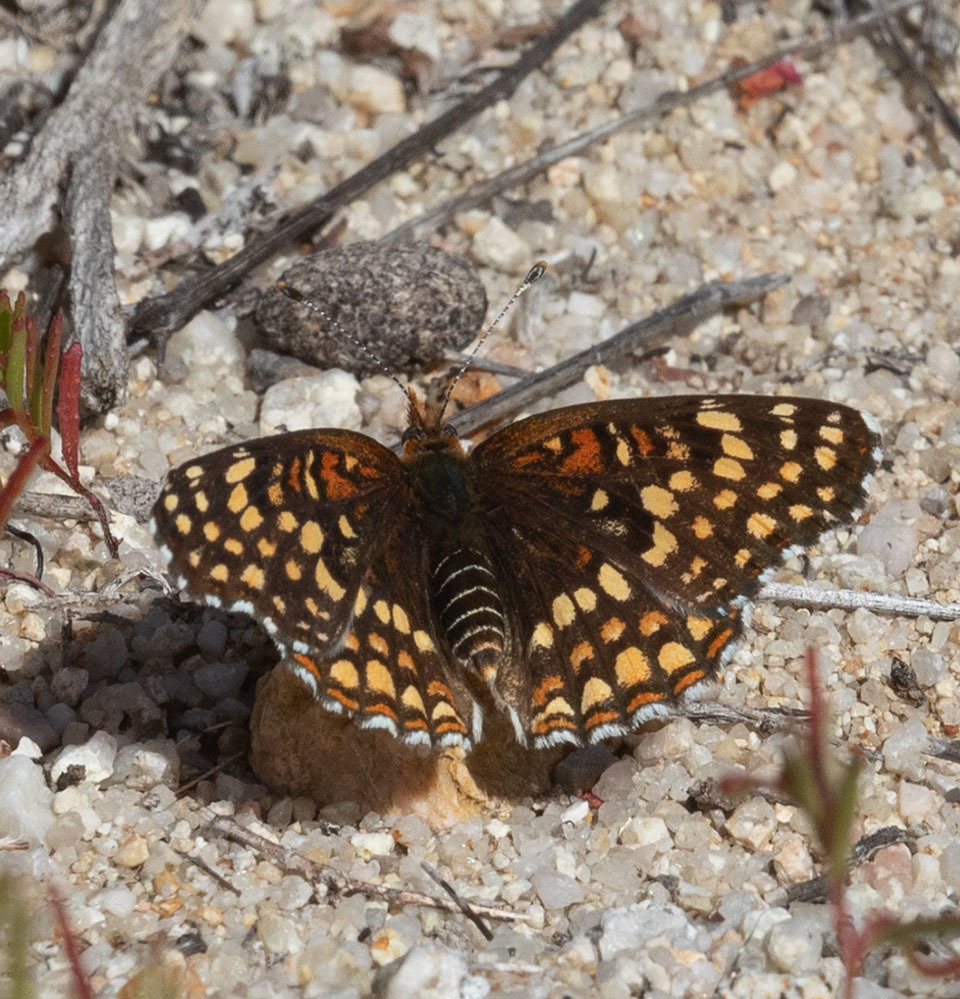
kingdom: Animalia
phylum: Arthropoda
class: Insecta
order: Lepidoptera
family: Nymphalidae
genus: Chlosyne
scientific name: Chlosyne gabbii
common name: Gabb's checkerspot
